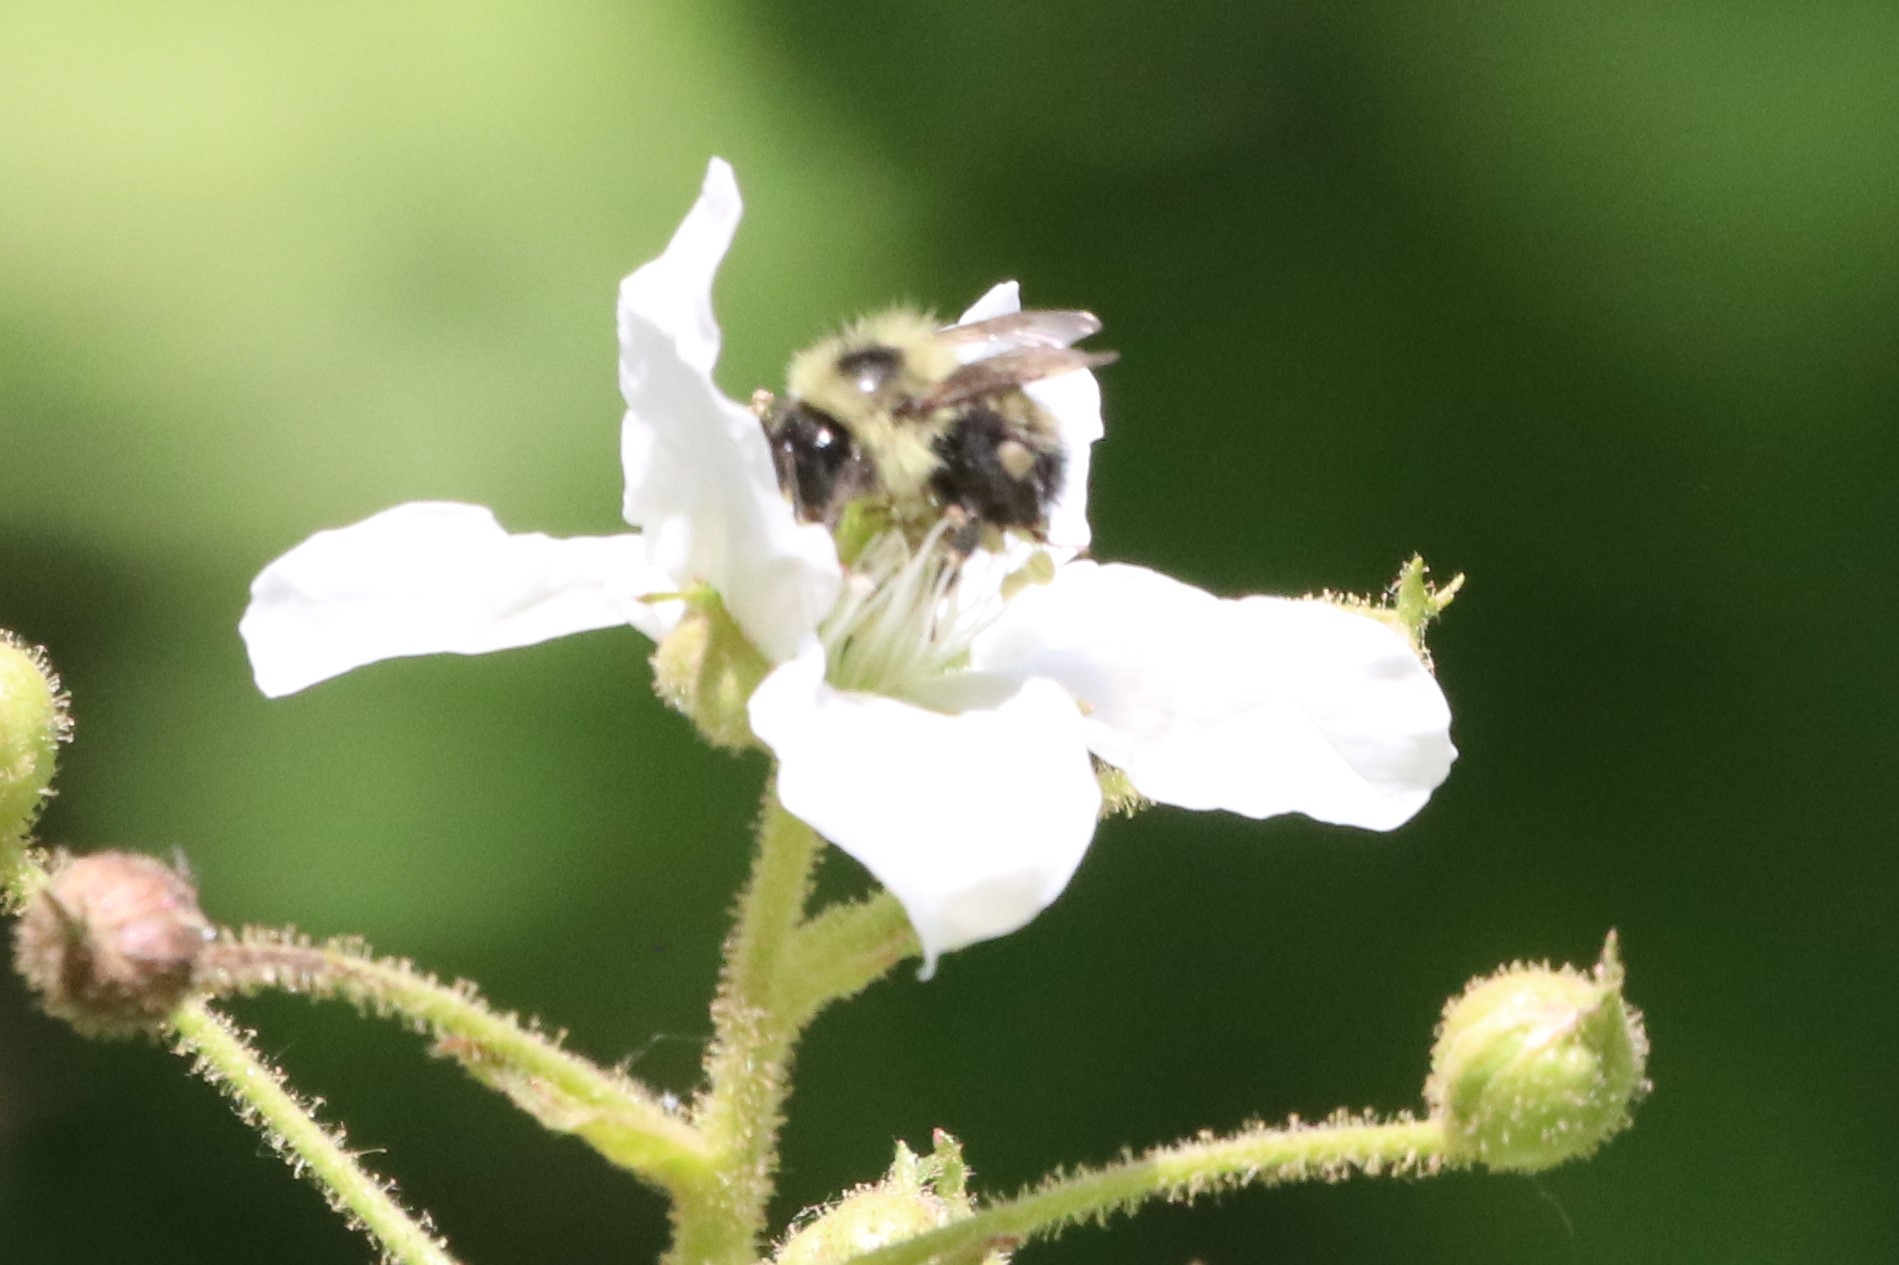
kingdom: Animalia
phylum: Arthropoda
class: Insecta
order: Hymenoptera
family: Apidae
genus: Pyrobombus
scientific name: Pyrobombus
